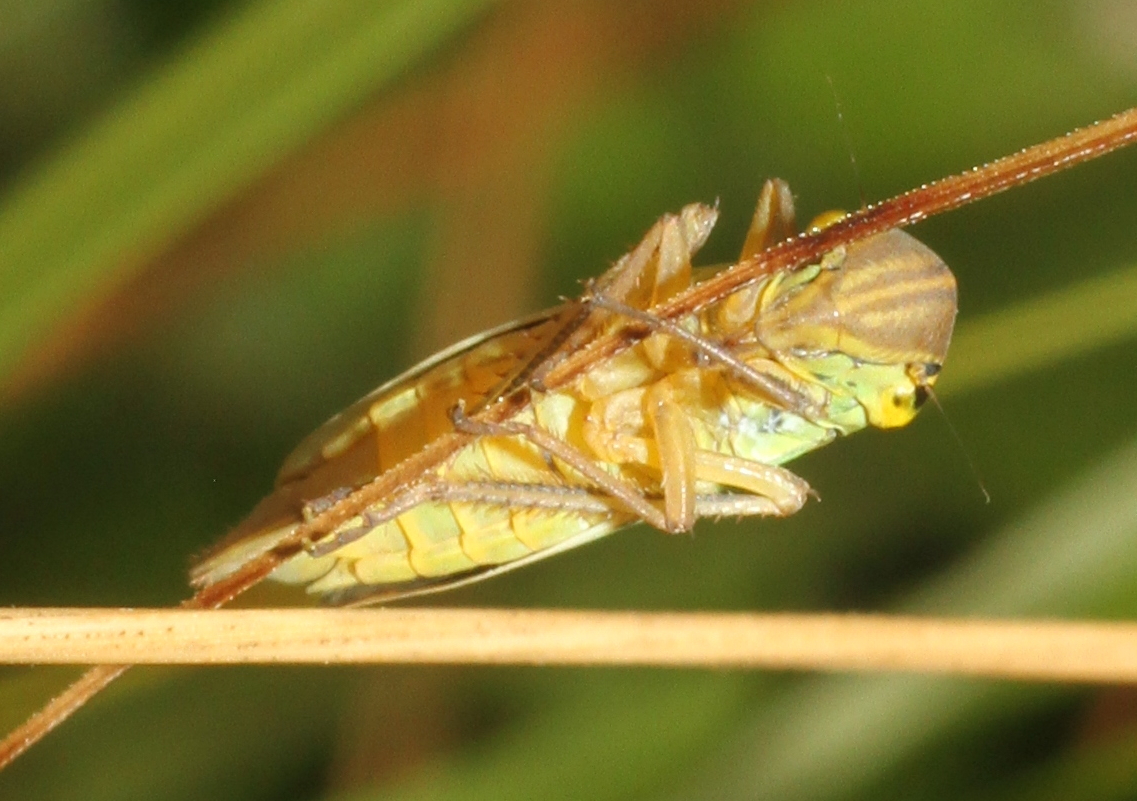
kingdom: Animalia
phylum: Arthropoda
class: Insecta
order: Hemiptera
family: Cicadellidae
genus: Cicadella
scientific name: Cicadella viridis
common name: Leafhopper
